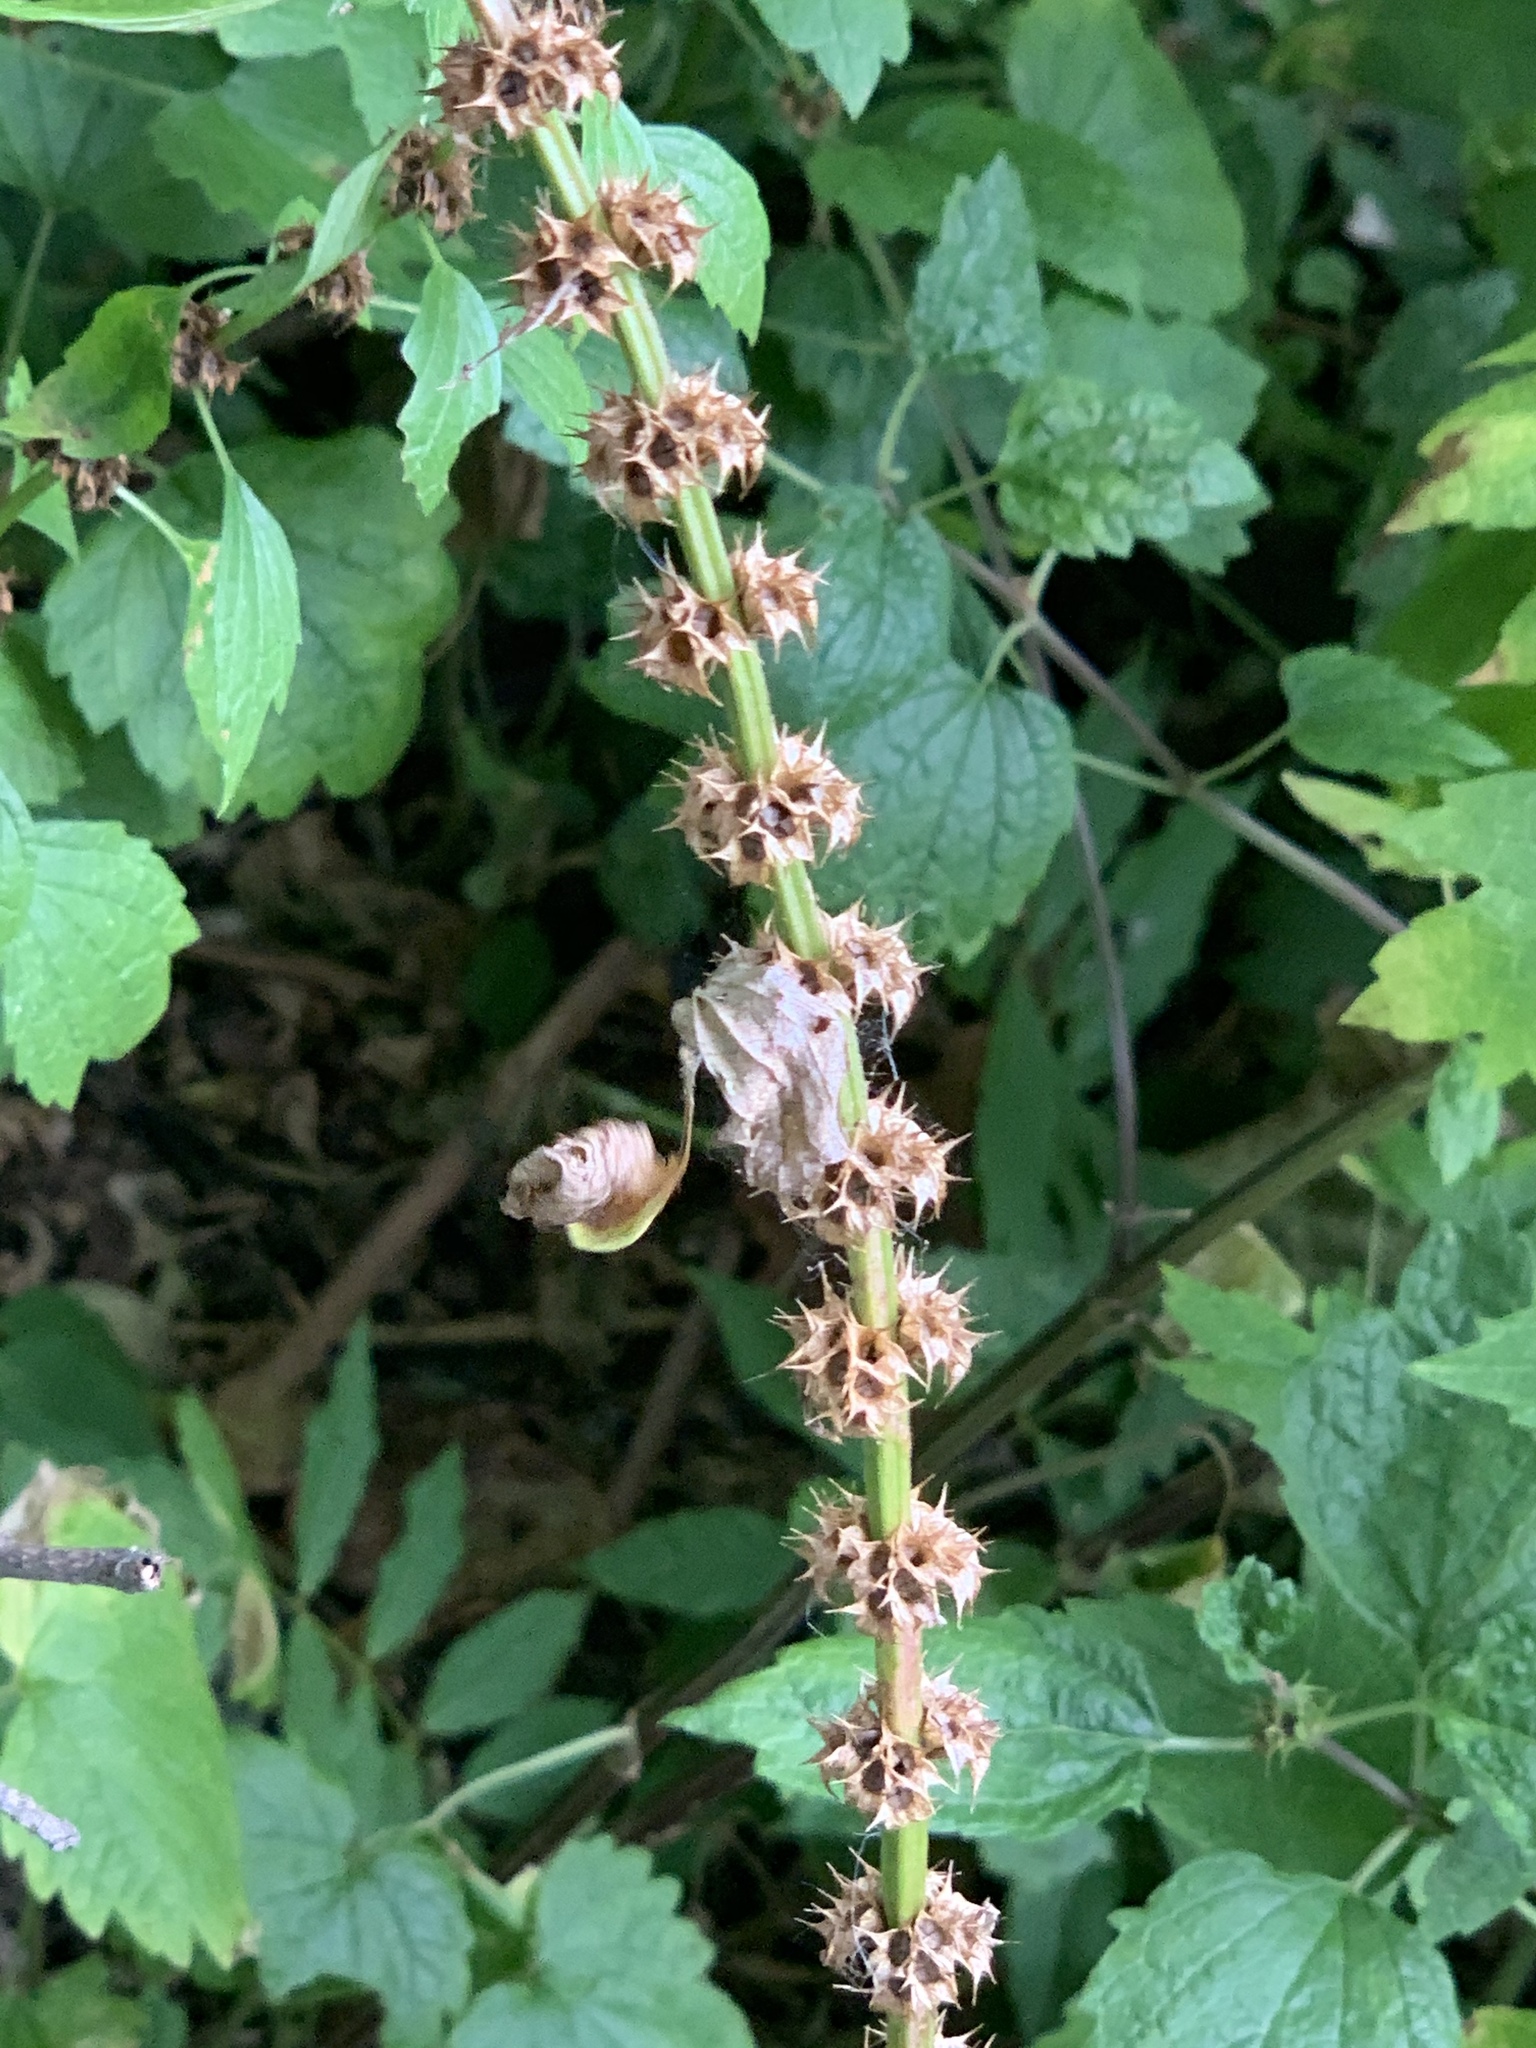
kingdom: Plantae
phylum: Tracheophyta
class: Magnoliopsida
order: Lamiales
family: Lamiaceae
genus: Leonurus
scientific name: Leonurus cardiaca
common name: Motherwort
